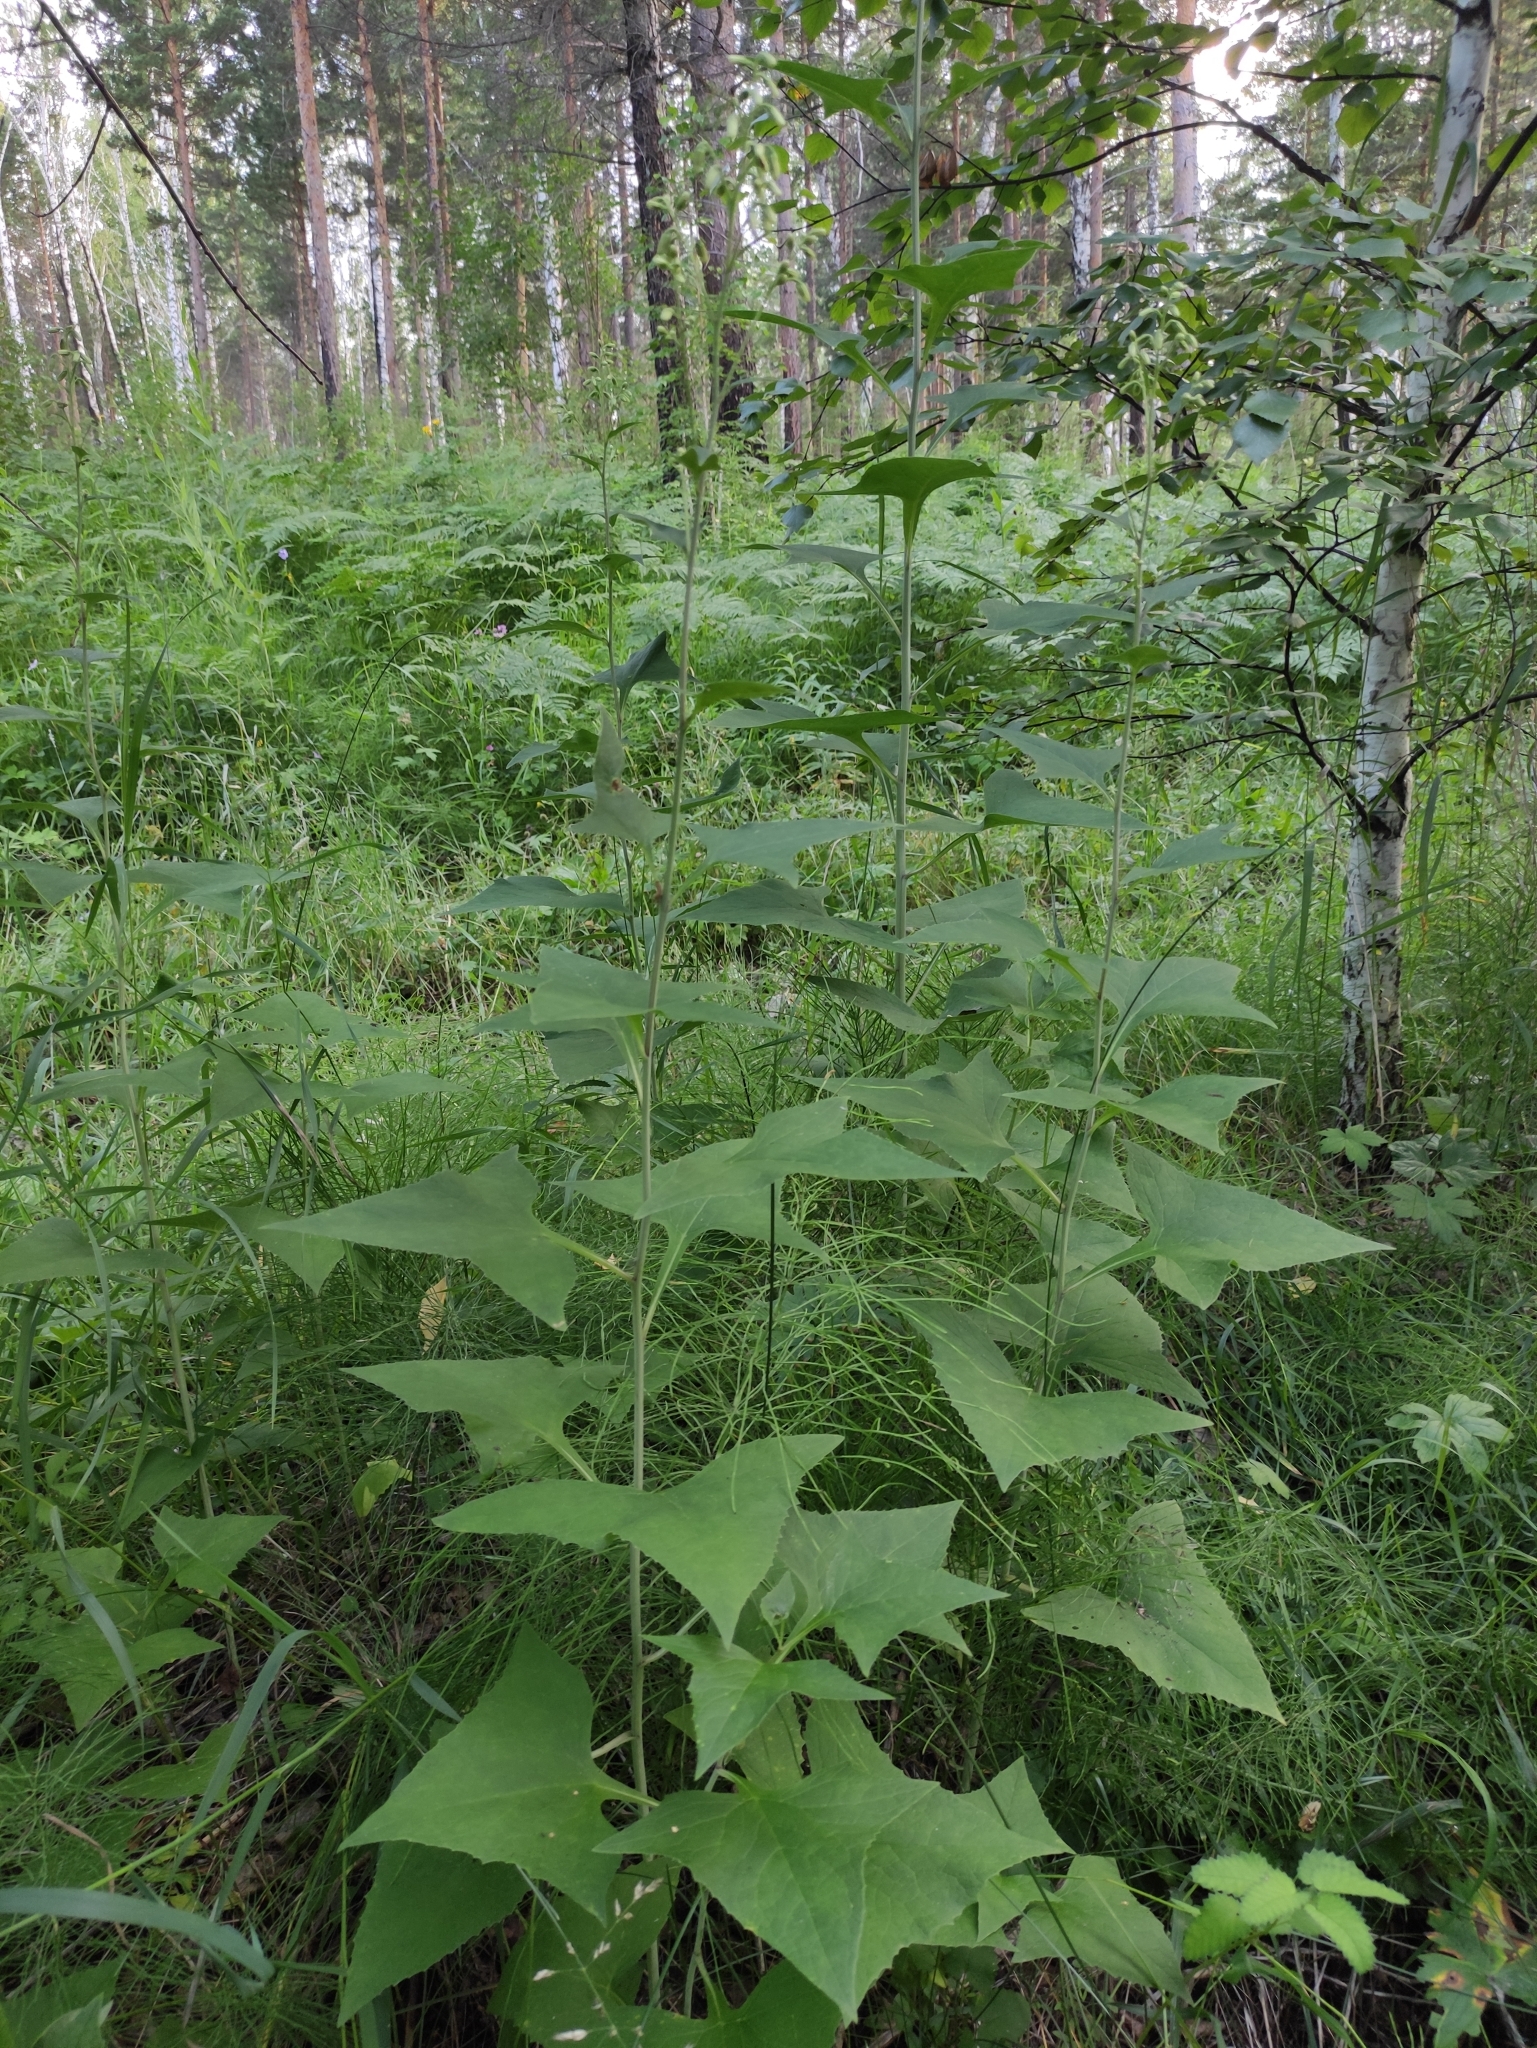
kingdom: Plantae
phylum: Tracheophyta
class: Magnoliopsida
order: Asterales
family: Asteraceae
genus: Parasenecio
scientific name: Parasenecio hastatus
